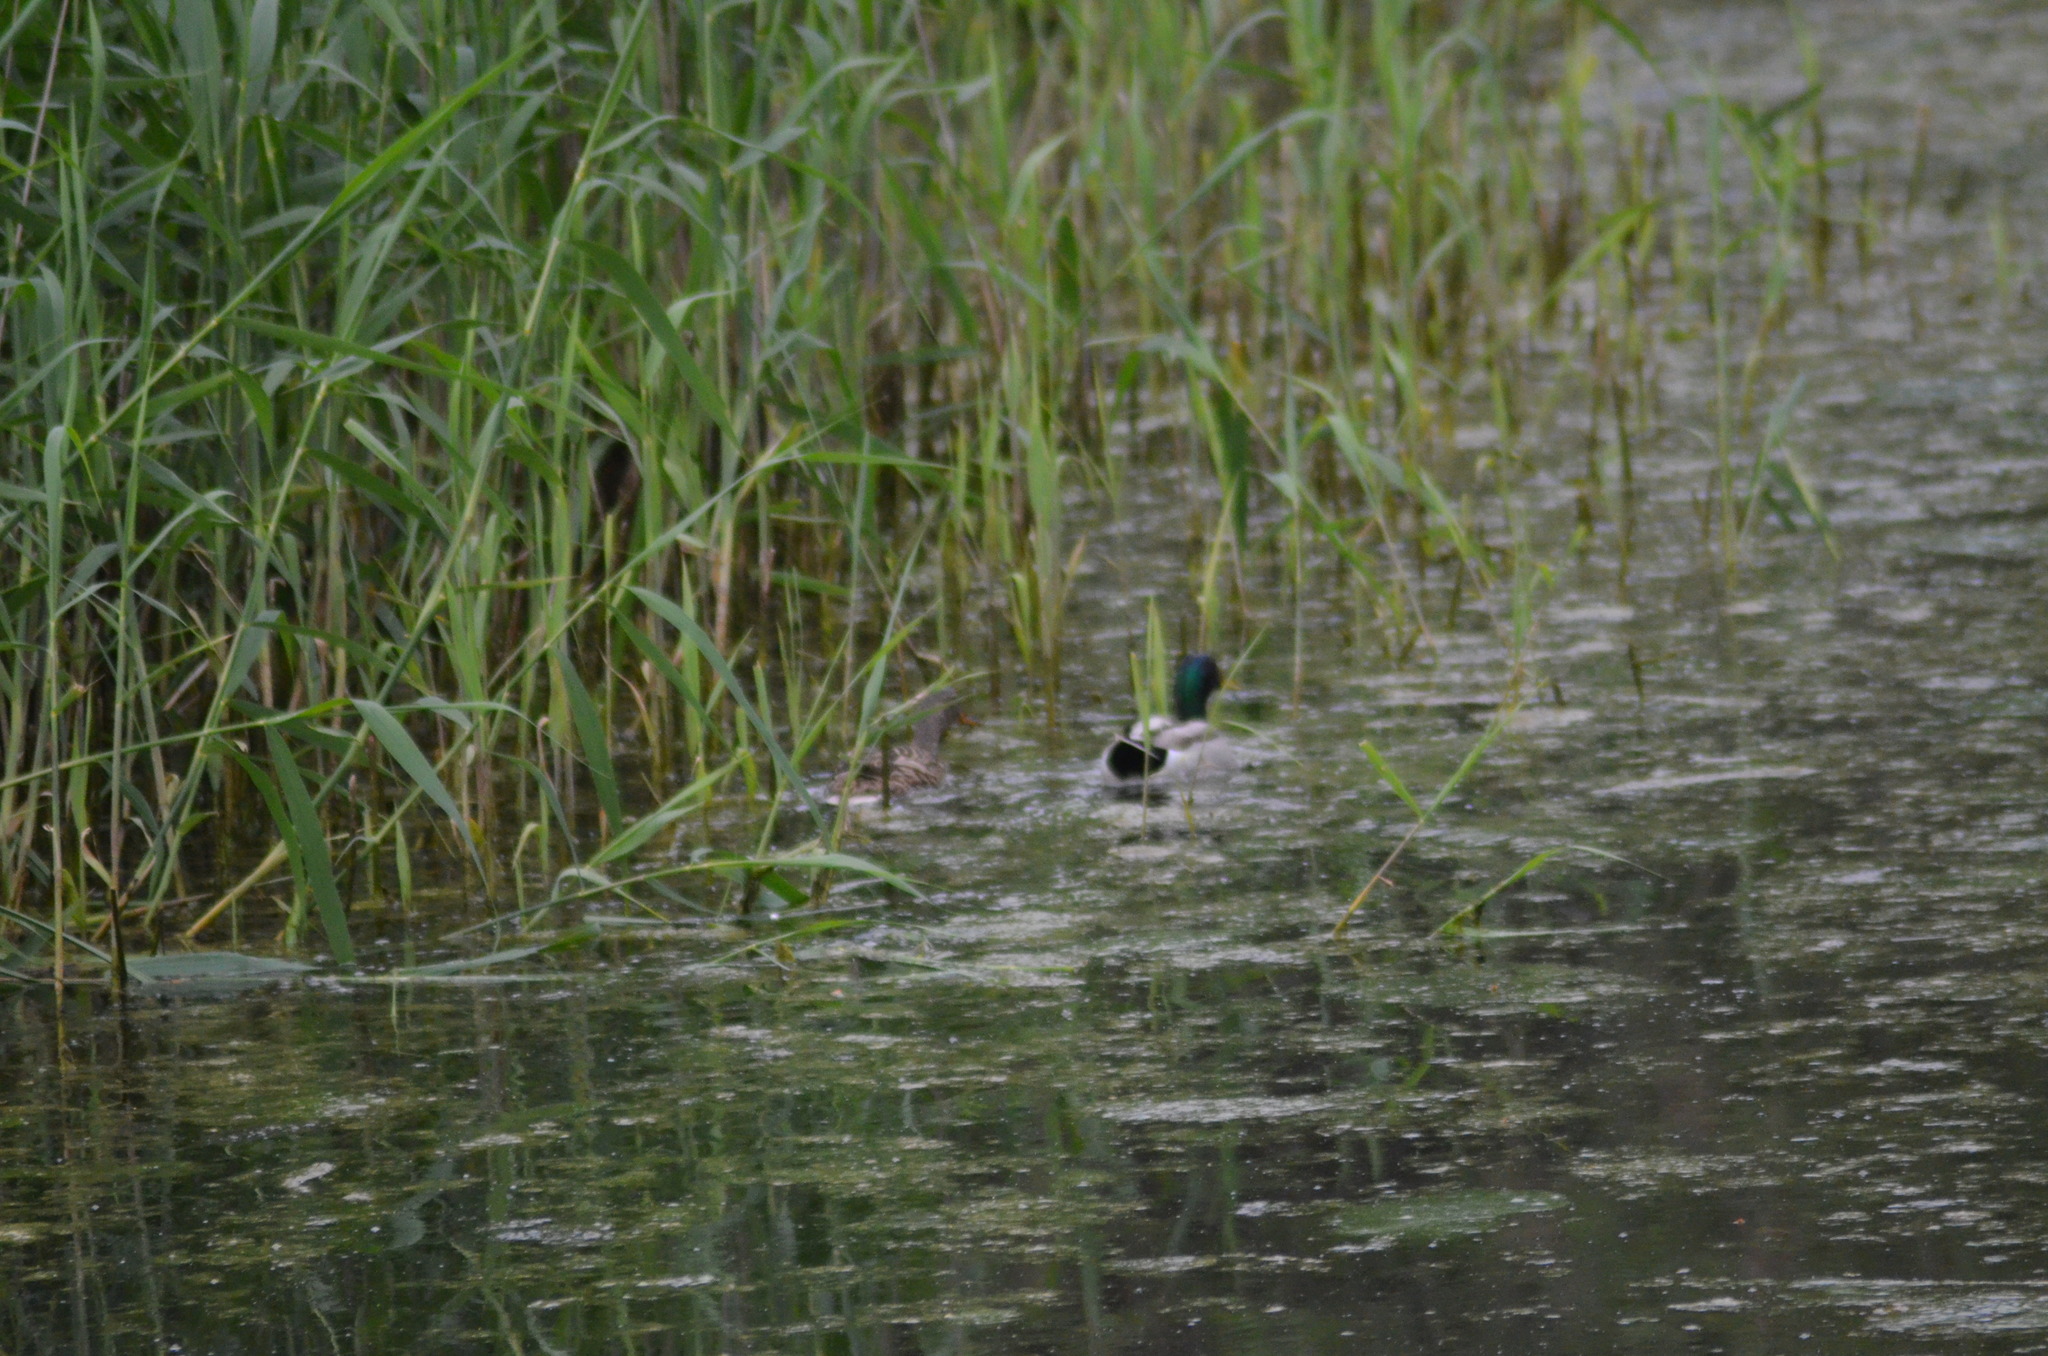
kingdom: Animalia
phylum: Chordata
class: Aves
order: Anseriformes
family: Anatidae
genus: Anas
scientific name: Anas platyrhynchos
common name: Mallard
